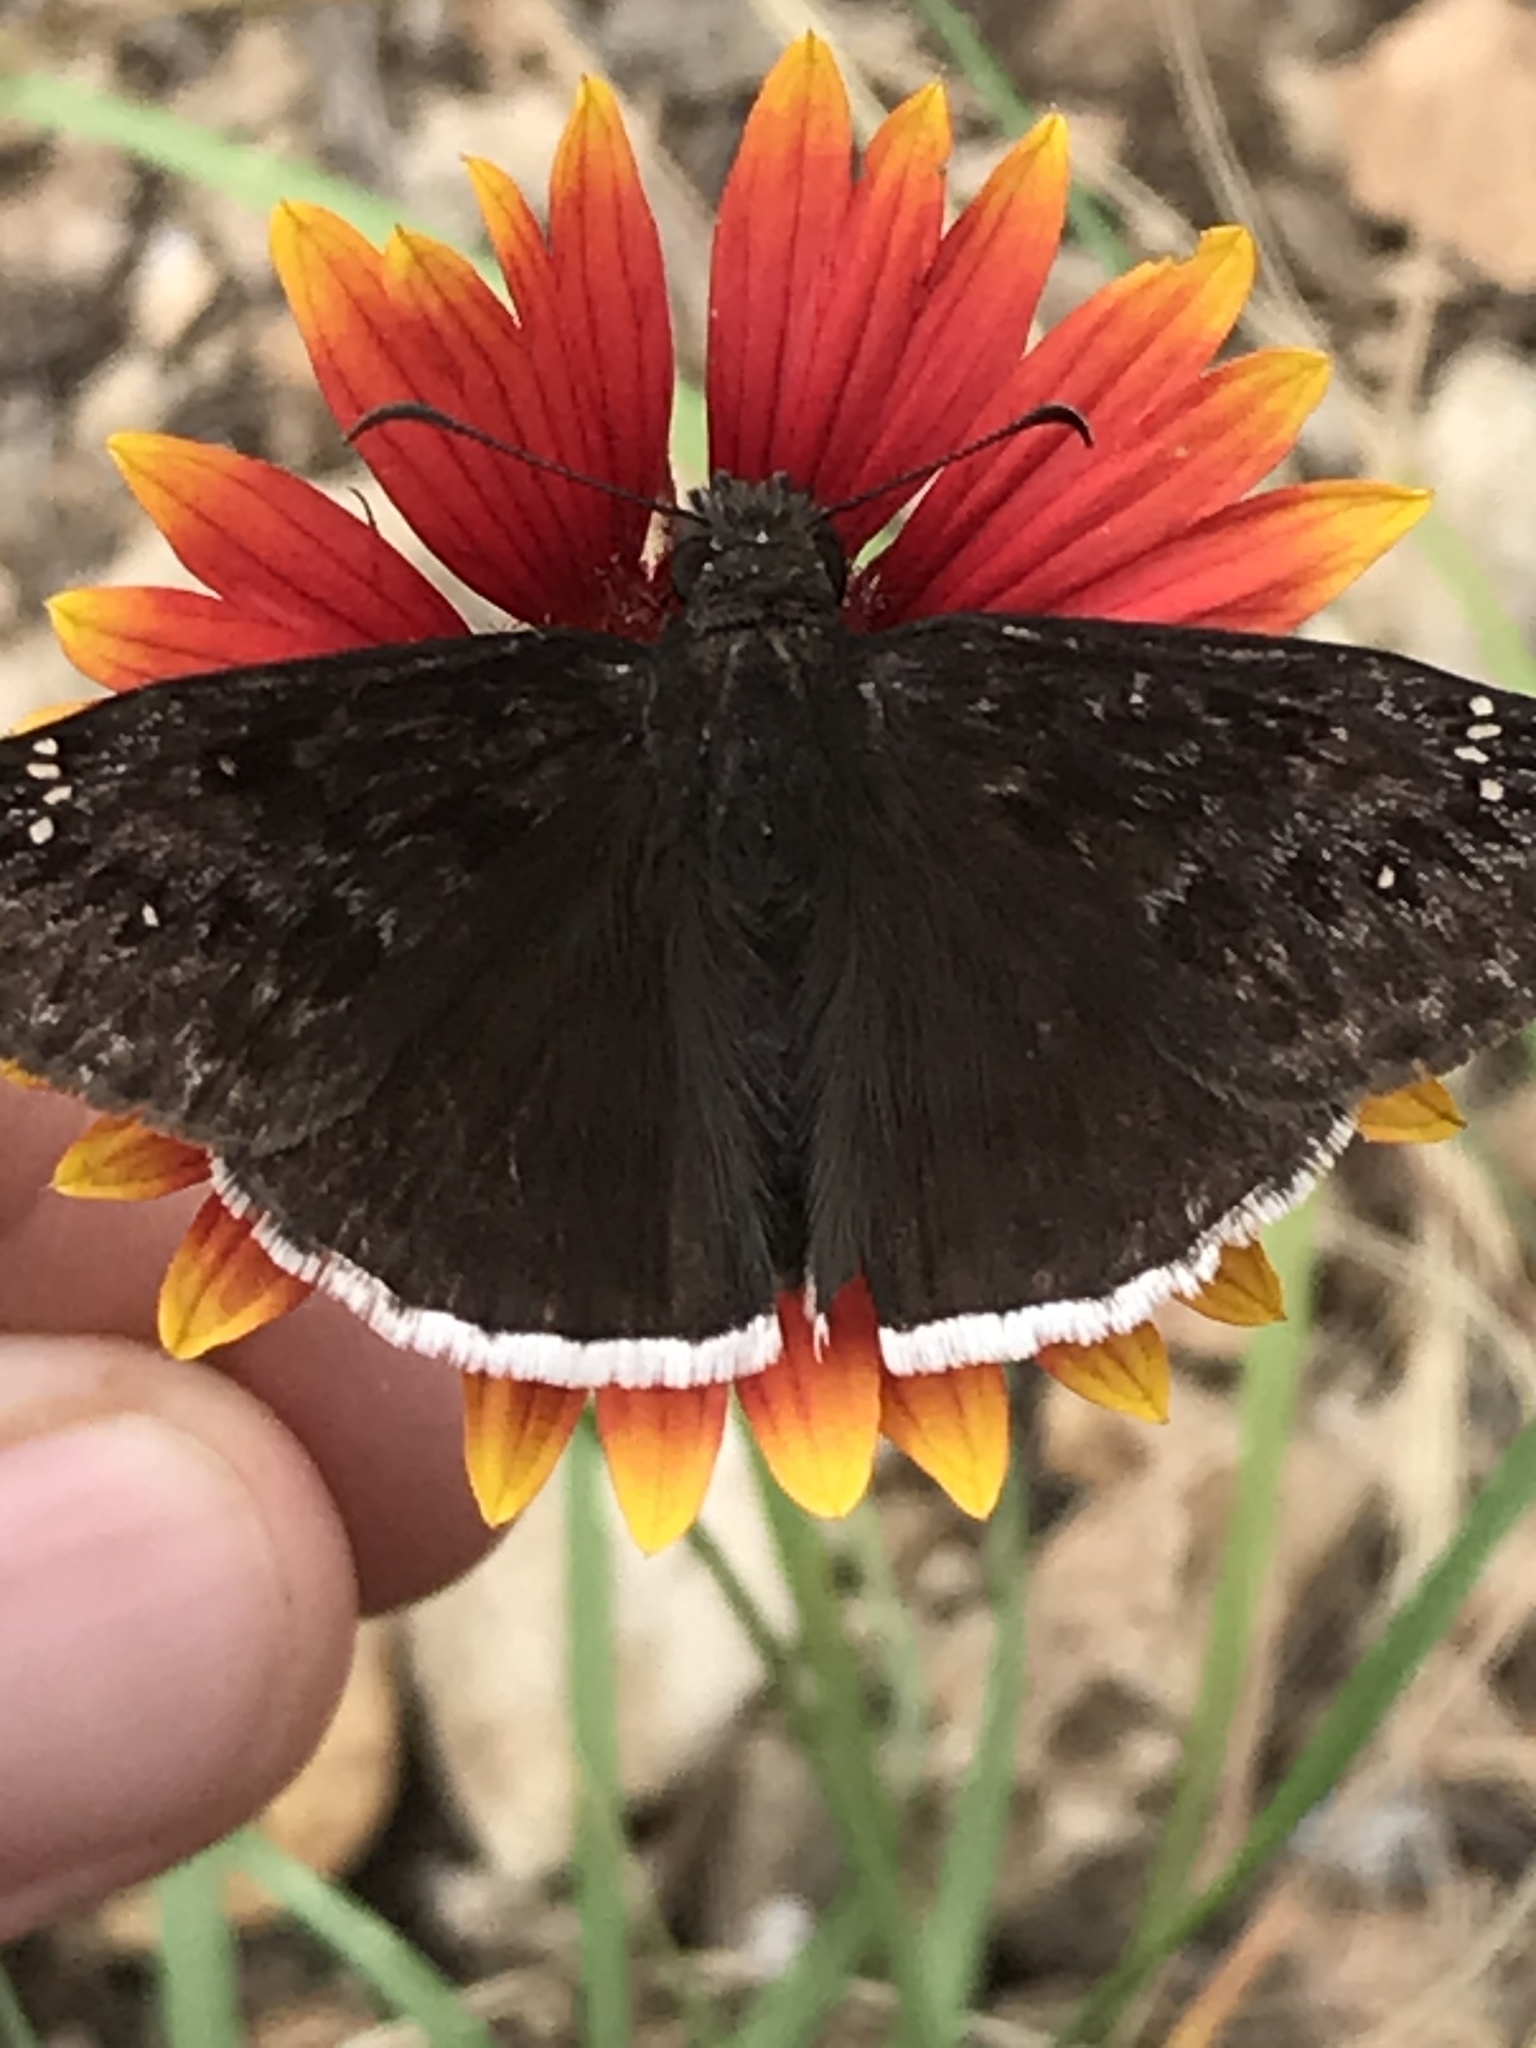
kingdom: Animalia
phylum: Arthropoda
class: Insecta
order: Lepidoptera
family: Hesperiidae
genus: Erynnis
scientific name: Erynnis tristis
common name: Mournful duskywing
